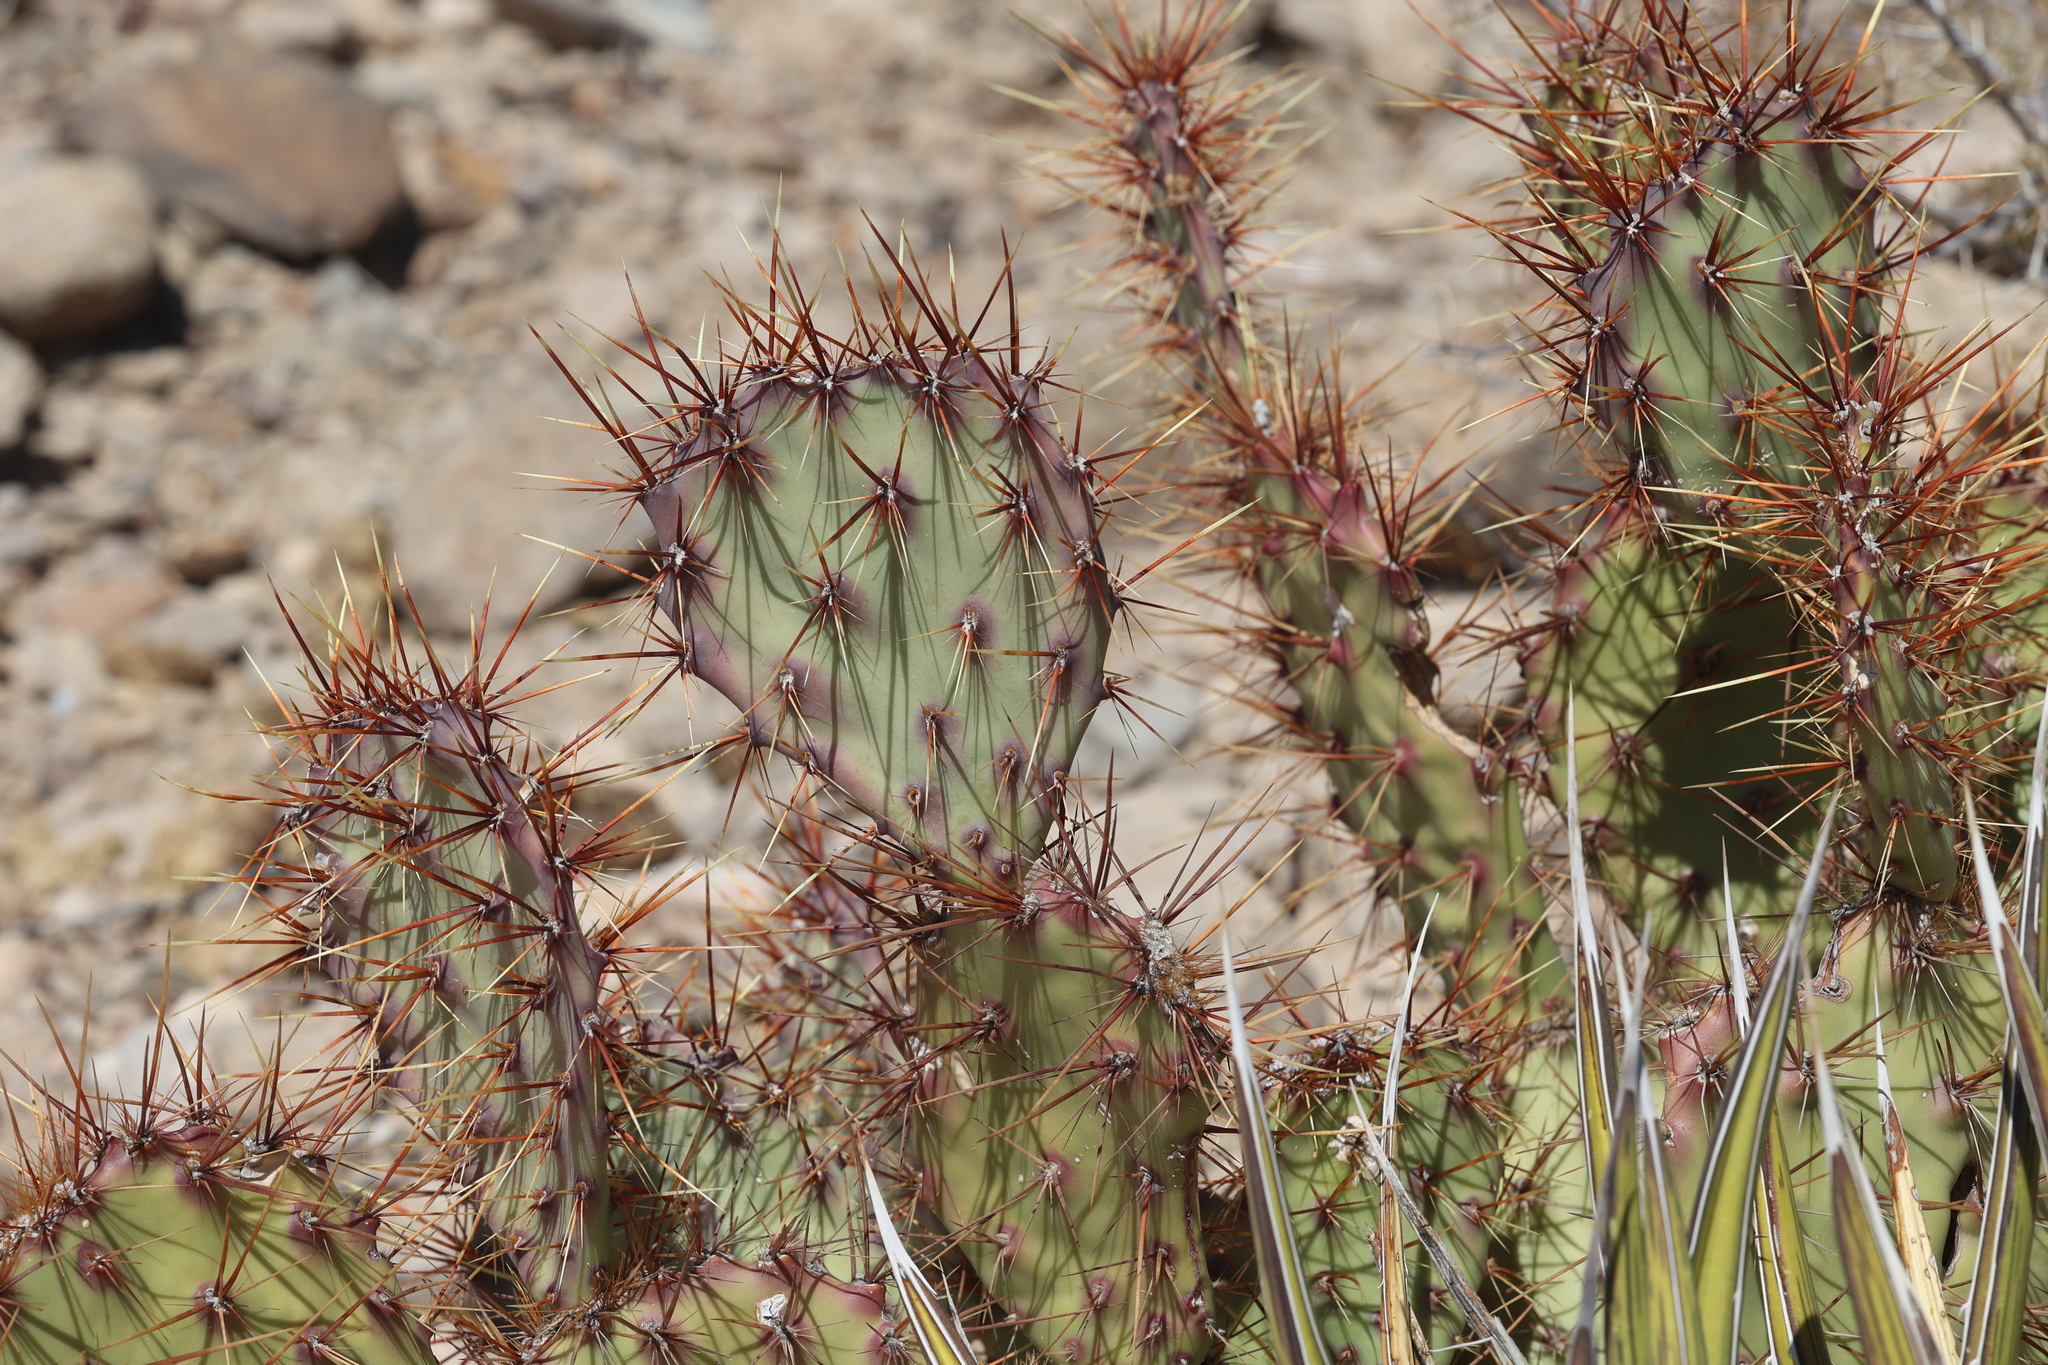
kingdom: Plantae
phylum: Tracheophyta
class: Magnoliopsida
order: Caryophyllales
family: Cactaceae
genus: Opuntia
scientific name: Opuntia spinosibacca
